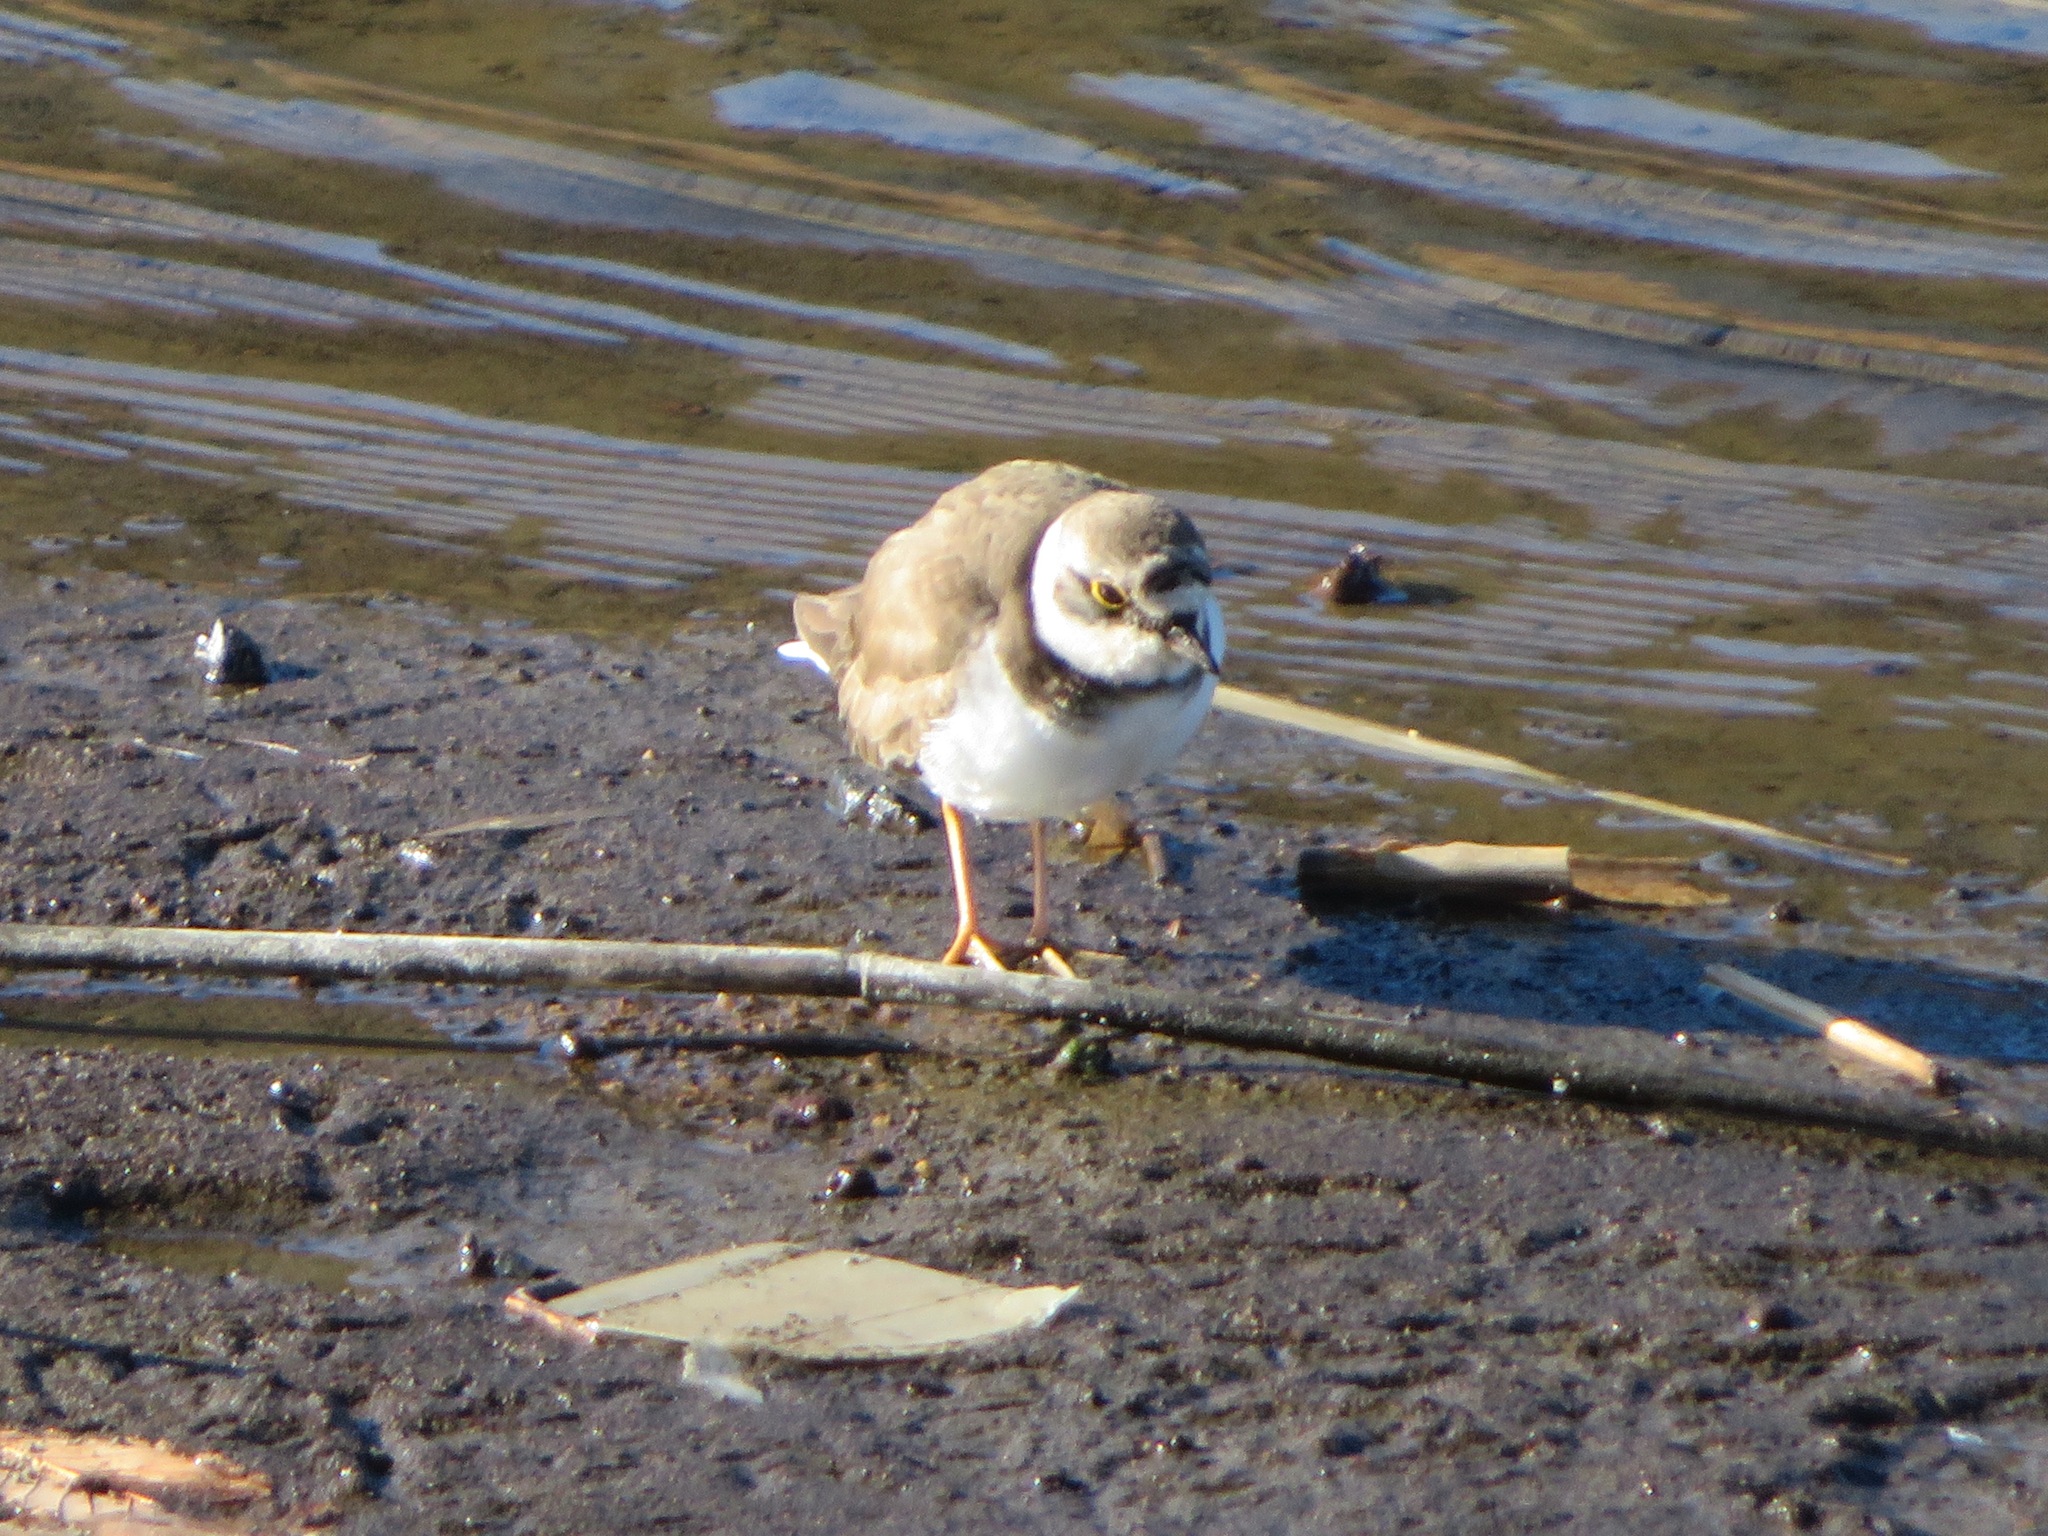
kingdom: Animalia
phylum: Chordata
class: Aves
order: Charadriiformes
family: Charadriidae
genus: Charadrius
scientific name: Charadrius dubius
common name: Little ringed plover
